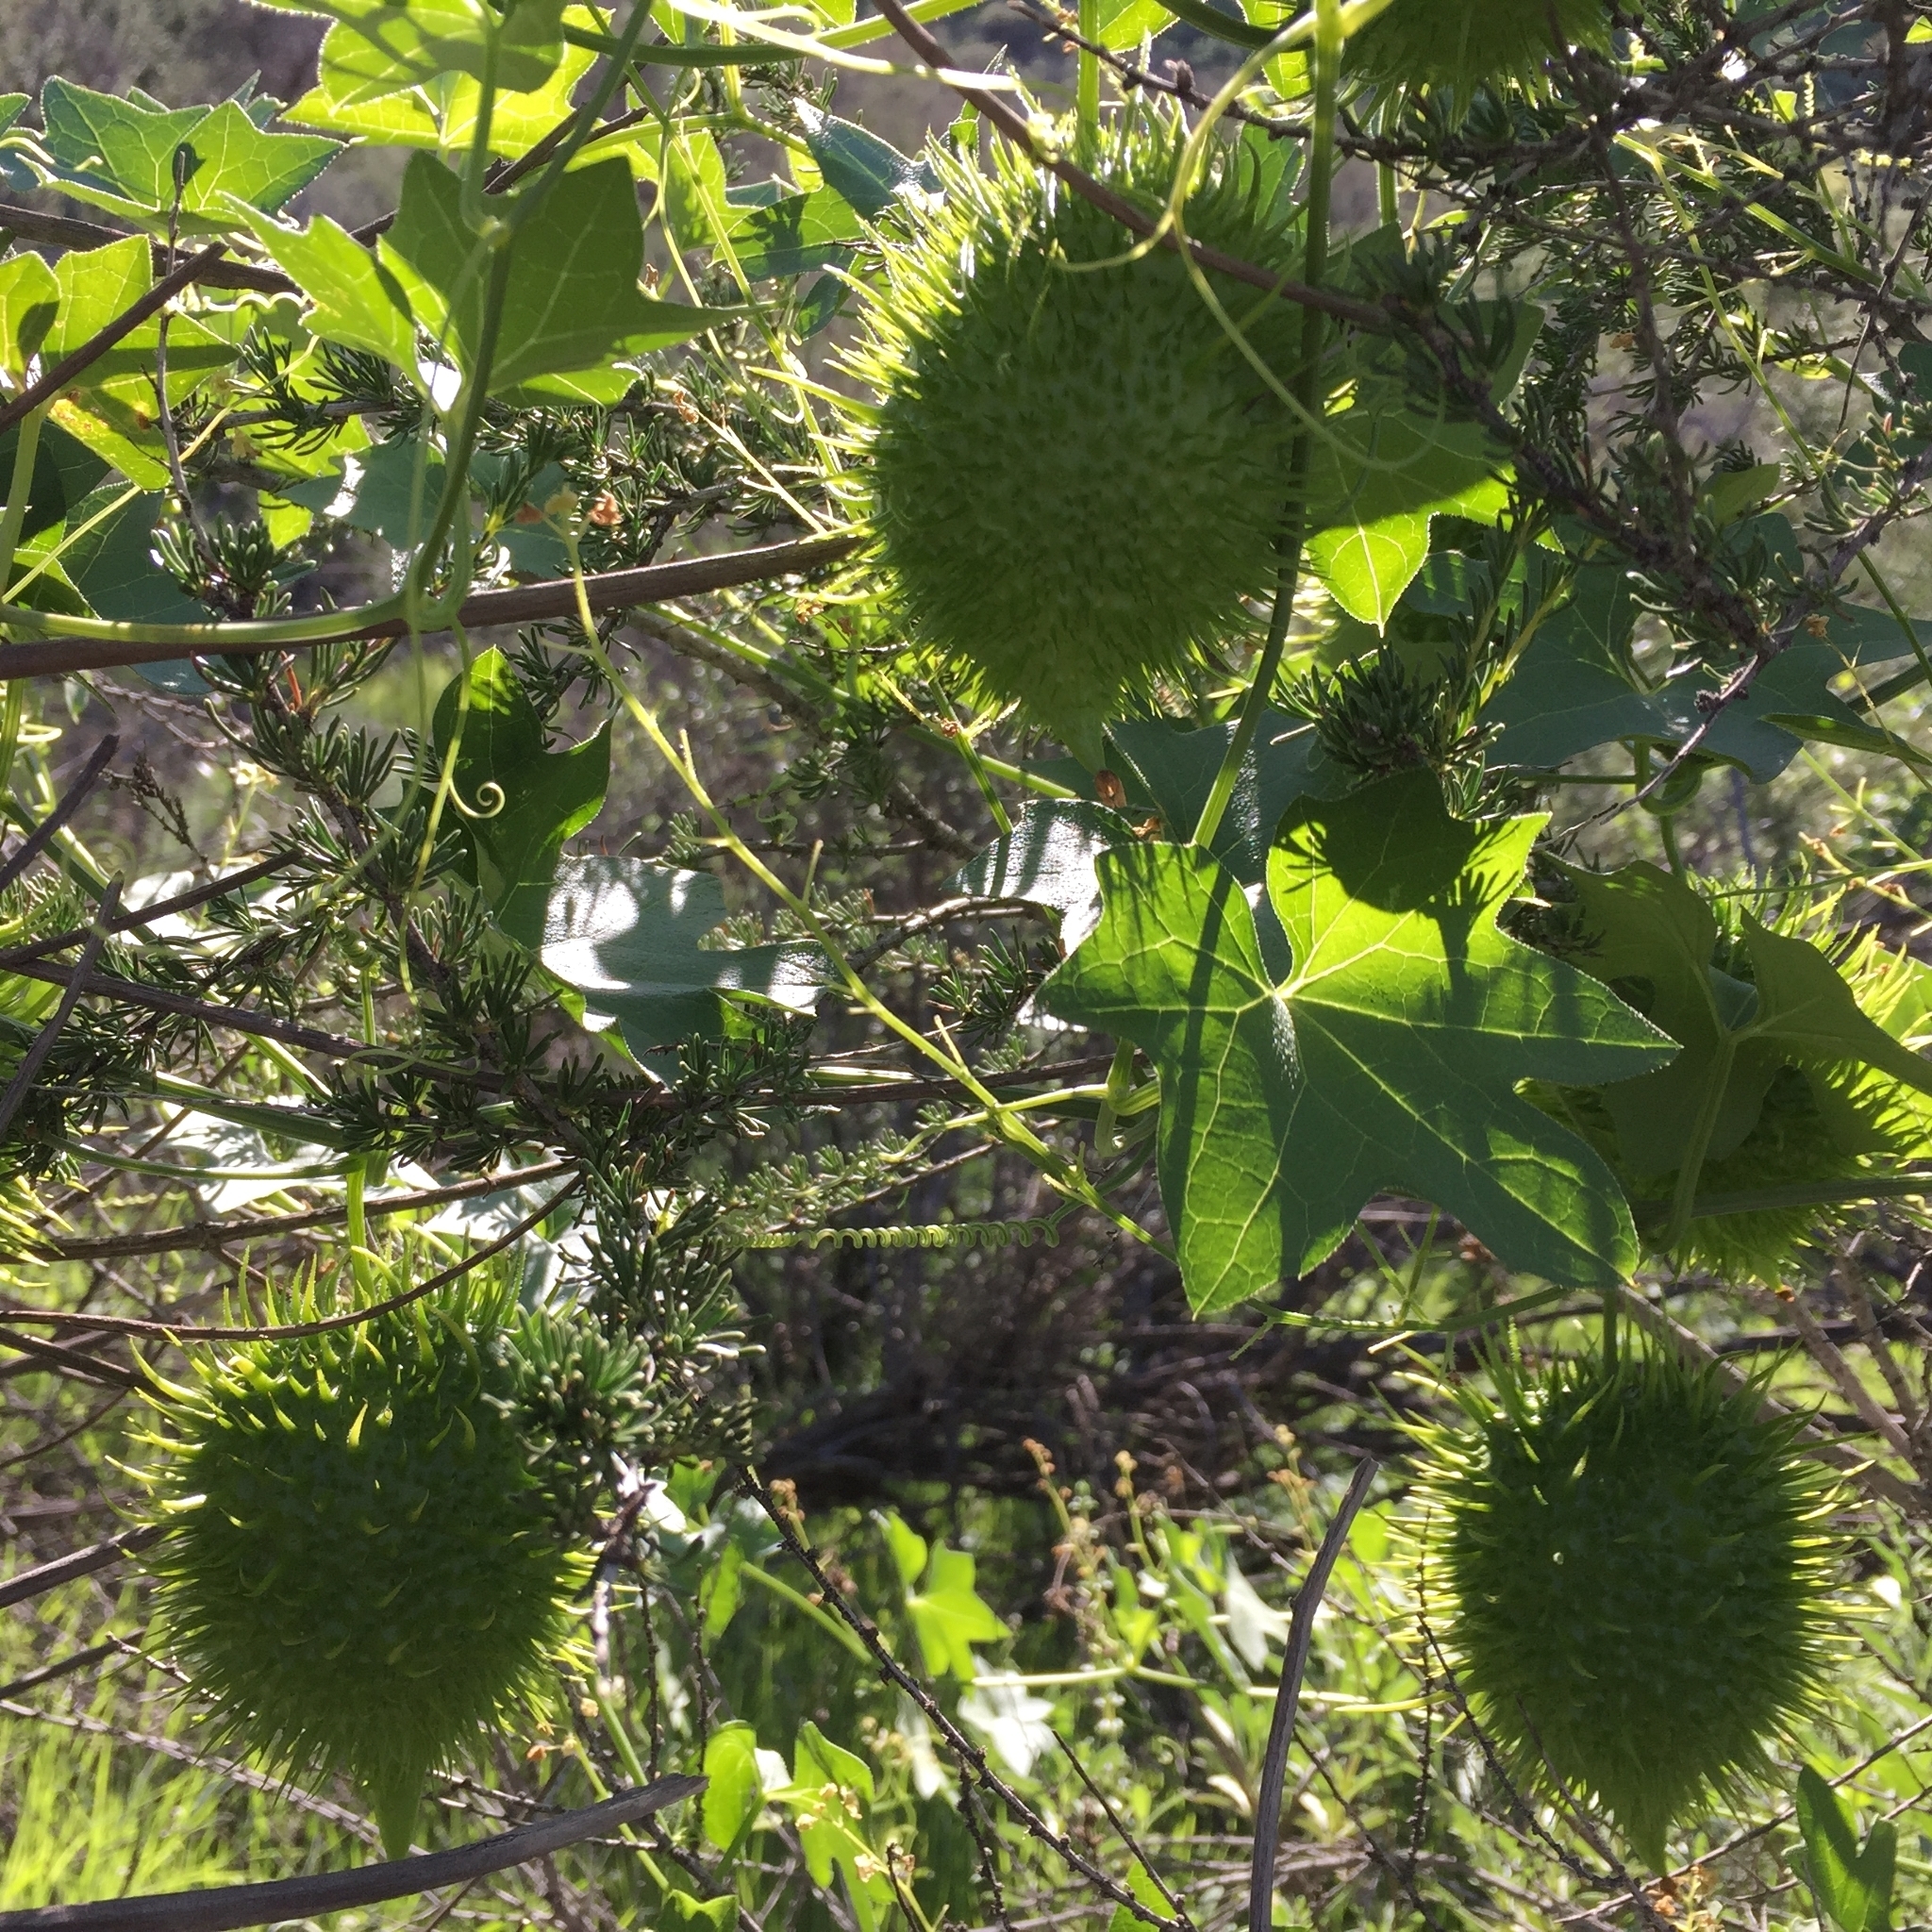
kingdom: Plantae
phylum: Tracheophyta
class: Magnoliopsida
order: Cucurbitales
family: Cucurbitaceae
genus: Marah
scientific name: Marah macrocarpa
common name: Cucamonga manroot
